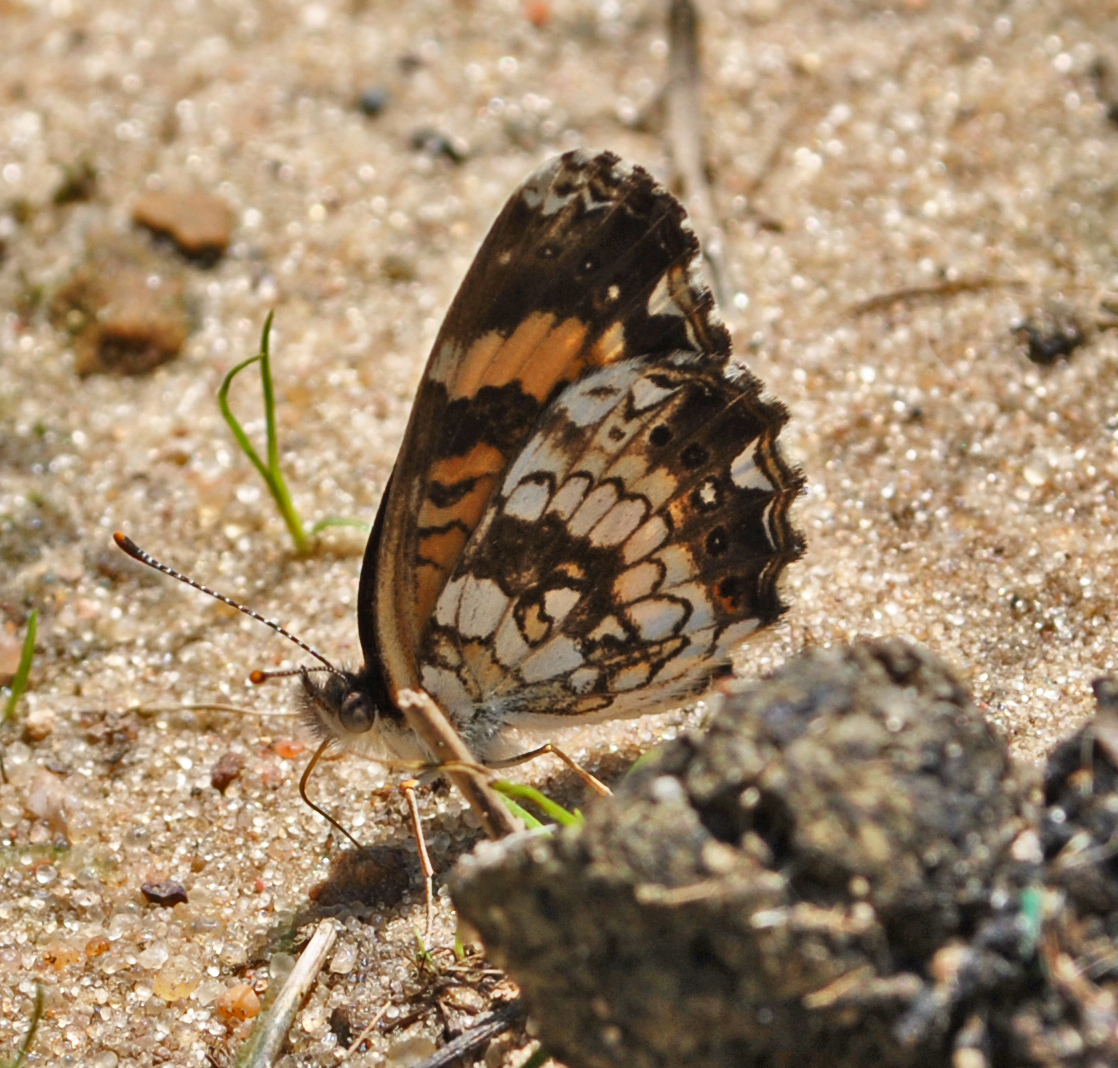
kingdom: Animalia
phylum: Arthropoda
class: Insecta
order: Lepidoptera
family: Nymphalidae
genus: Chlosyne
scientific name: Chlosyne nycteis
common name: Silvery checkerspot
